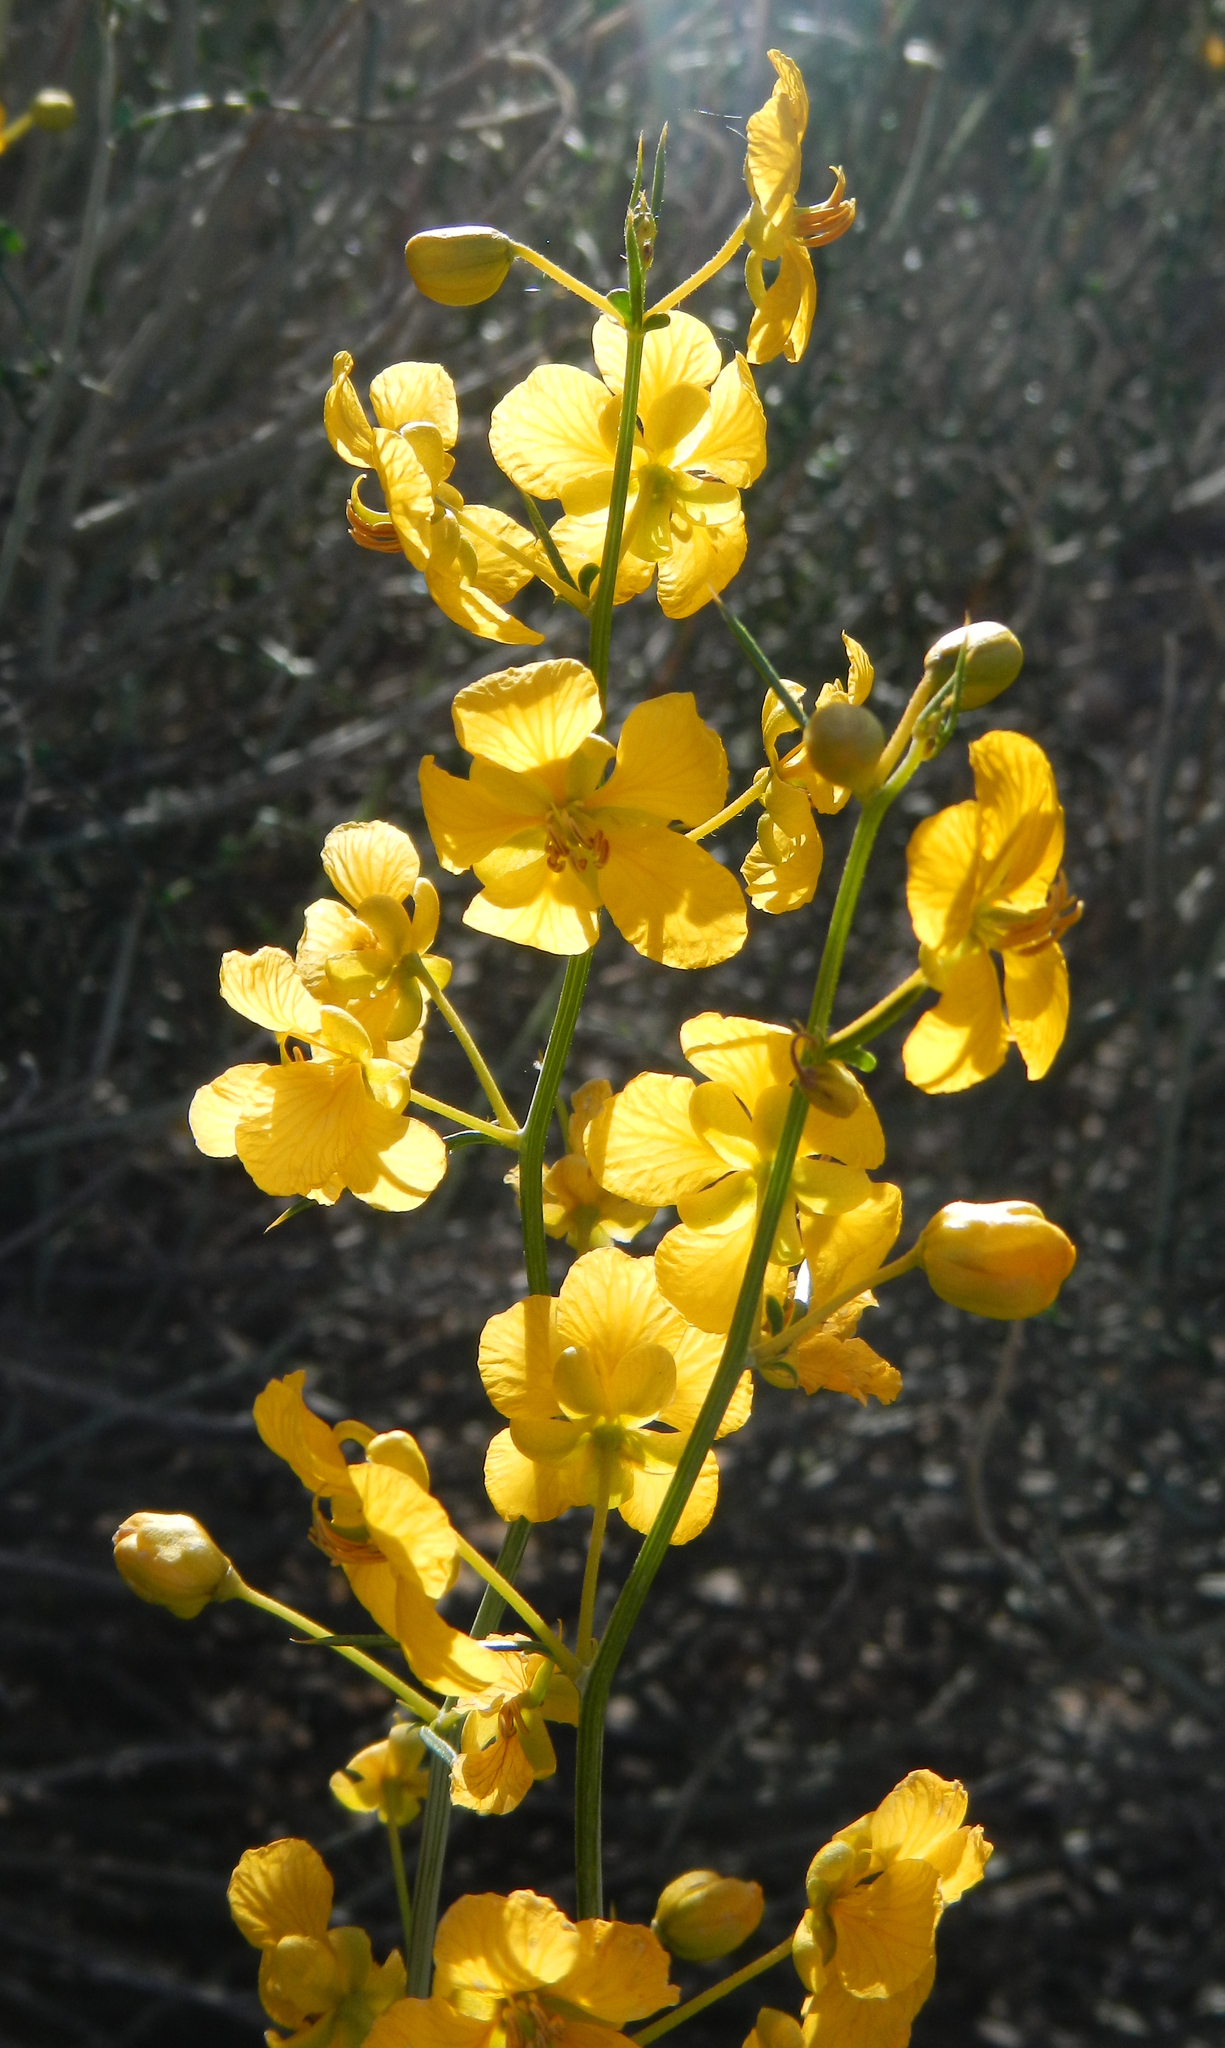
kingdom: Plantae
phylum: Tracheophyta
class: Magnoliopsida
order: Fabales
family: Fabaceae
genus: Senna
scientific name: Senna armata
